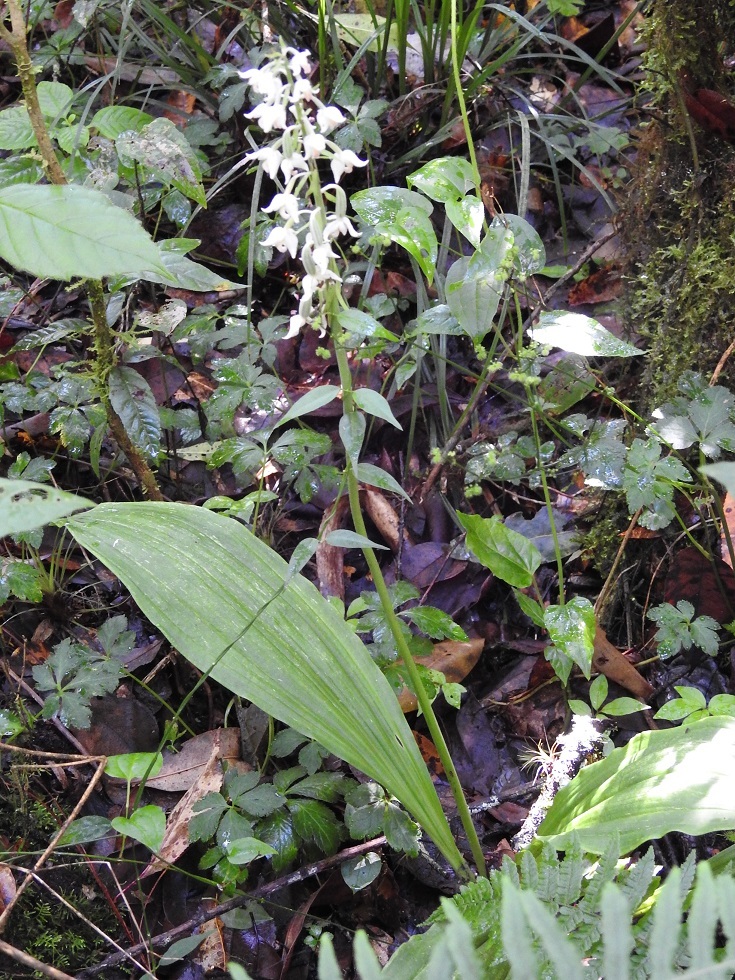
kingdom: Plantae
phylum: Tracheophyta
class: Liliopsida
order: Asparagales
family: Orchidaceae
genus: Calanthe
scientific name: Calanthe calanthoides
